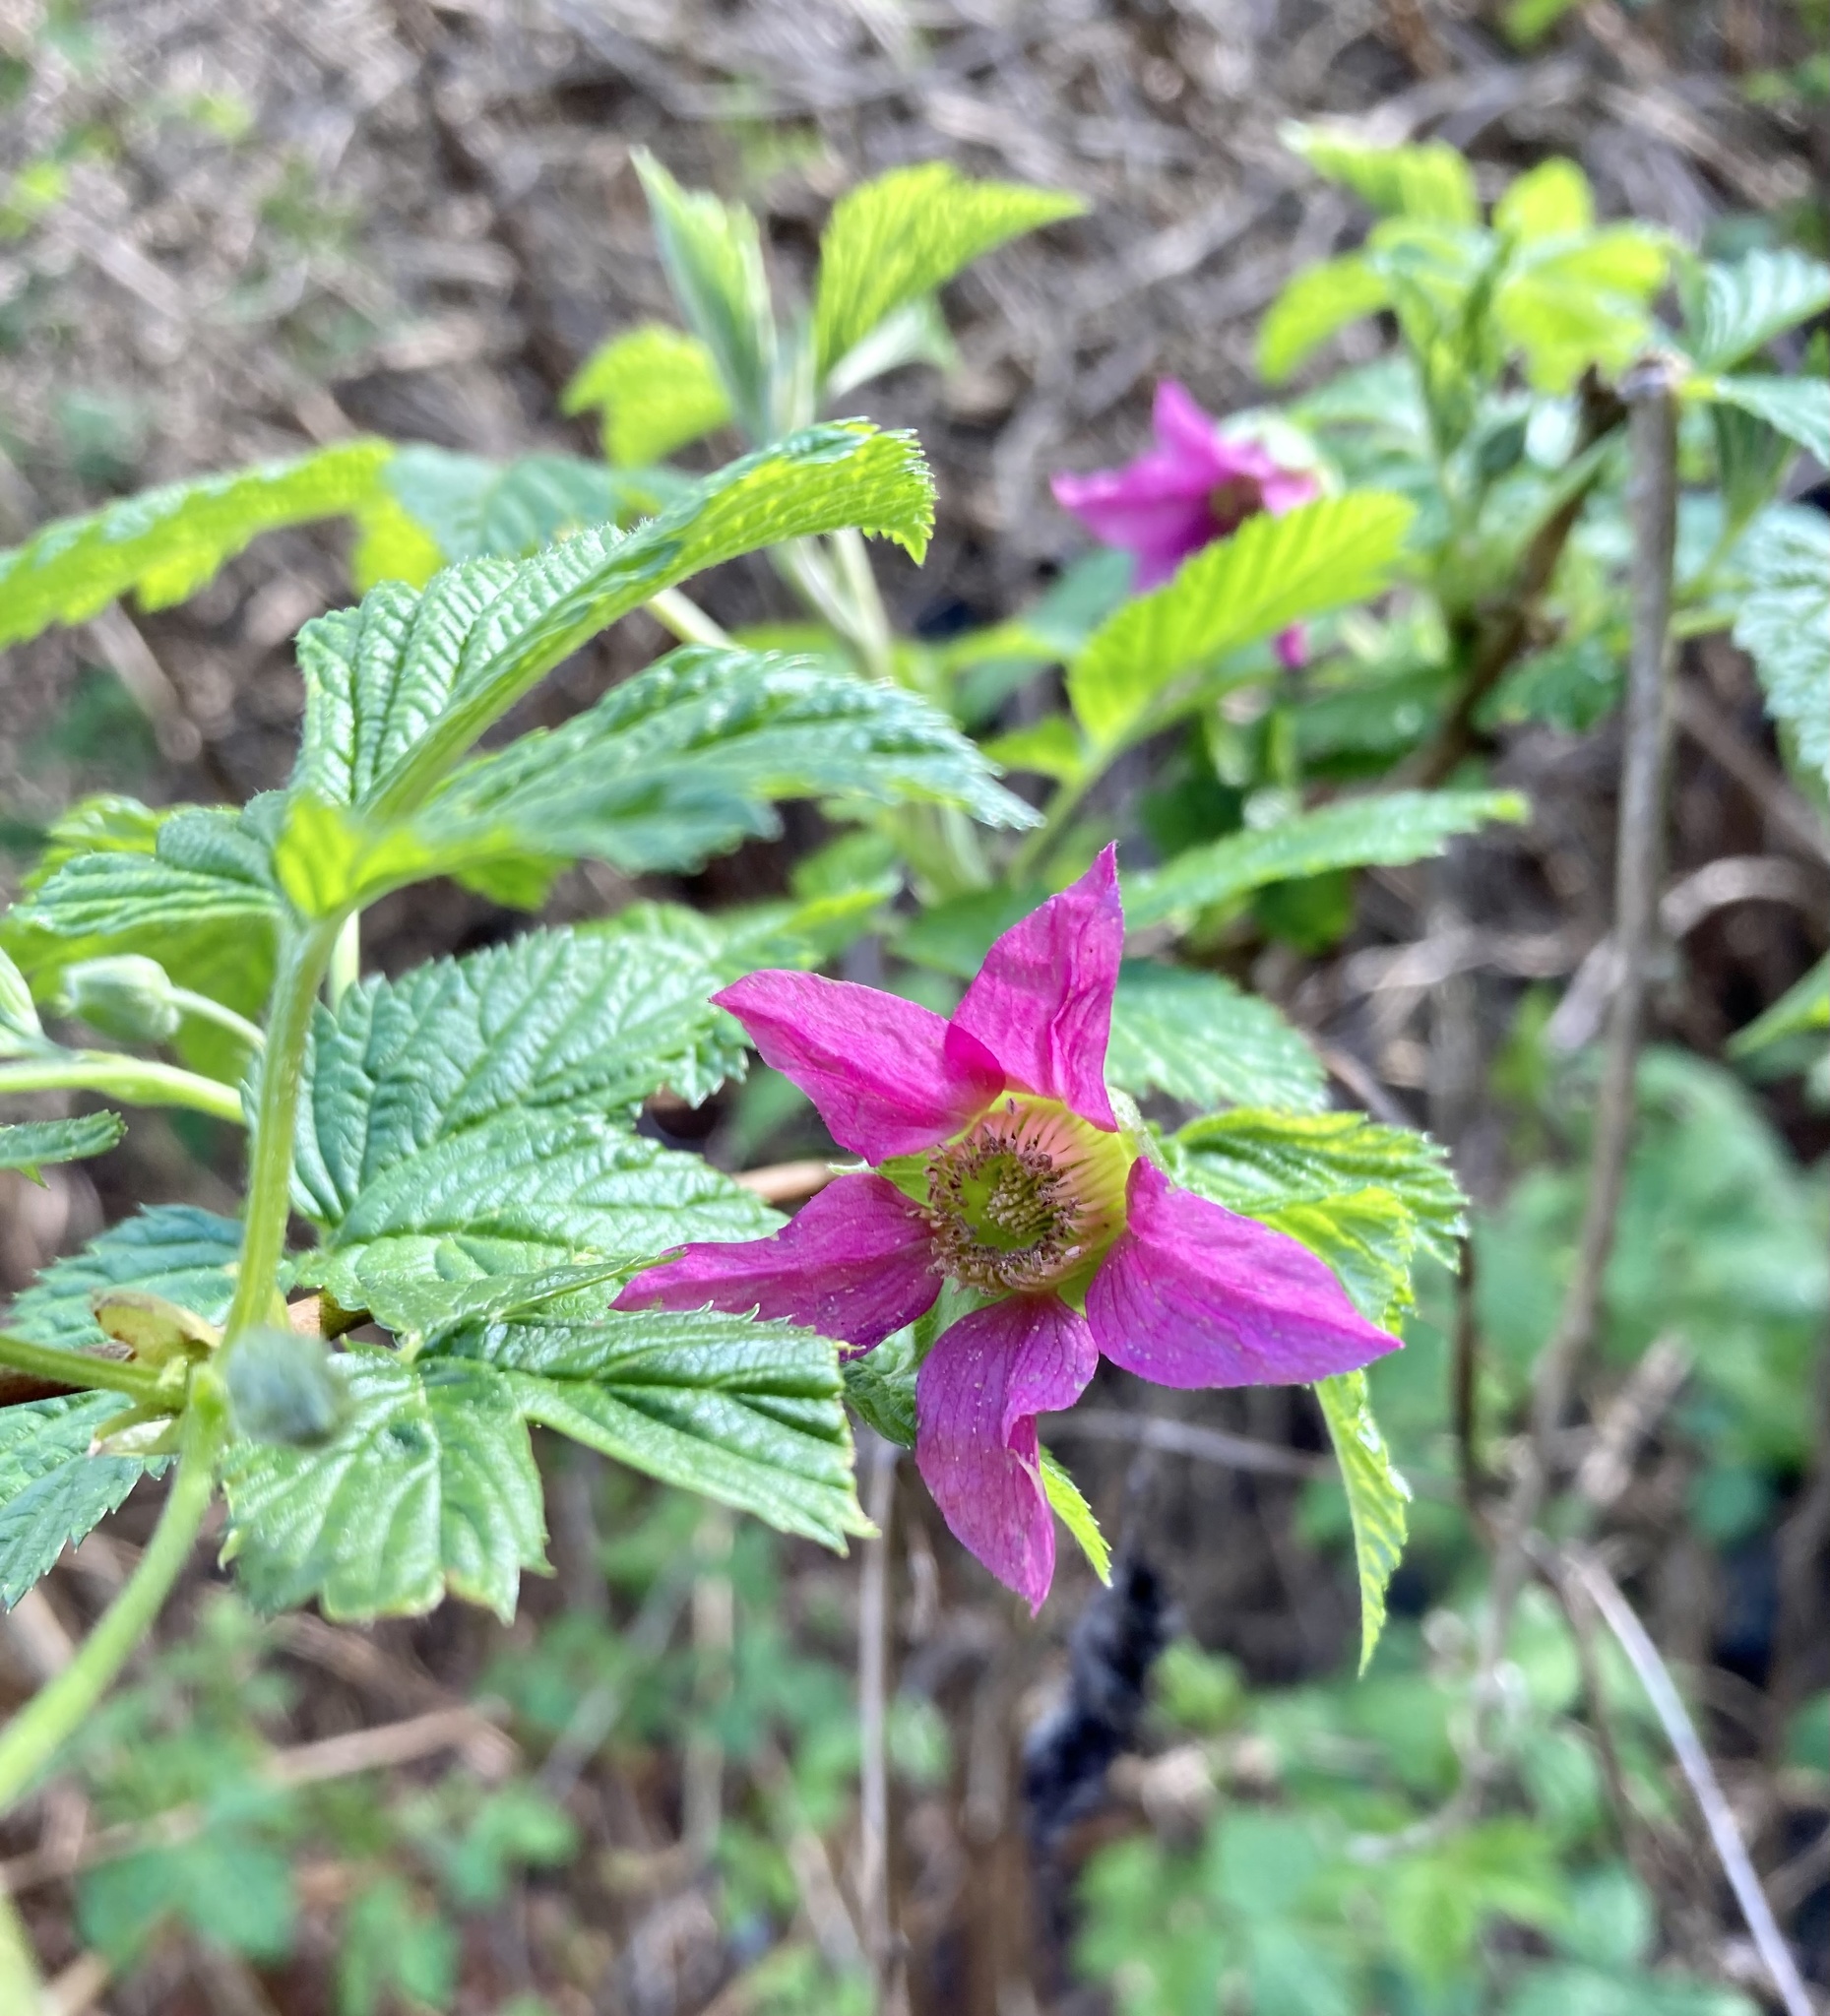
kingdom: Plantae
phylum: Tracheophyta
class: Magnoliopsida
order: Rosales
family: Rosaceae
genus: Rubus
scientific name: Rubus spectabilis
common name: Salmonberry
